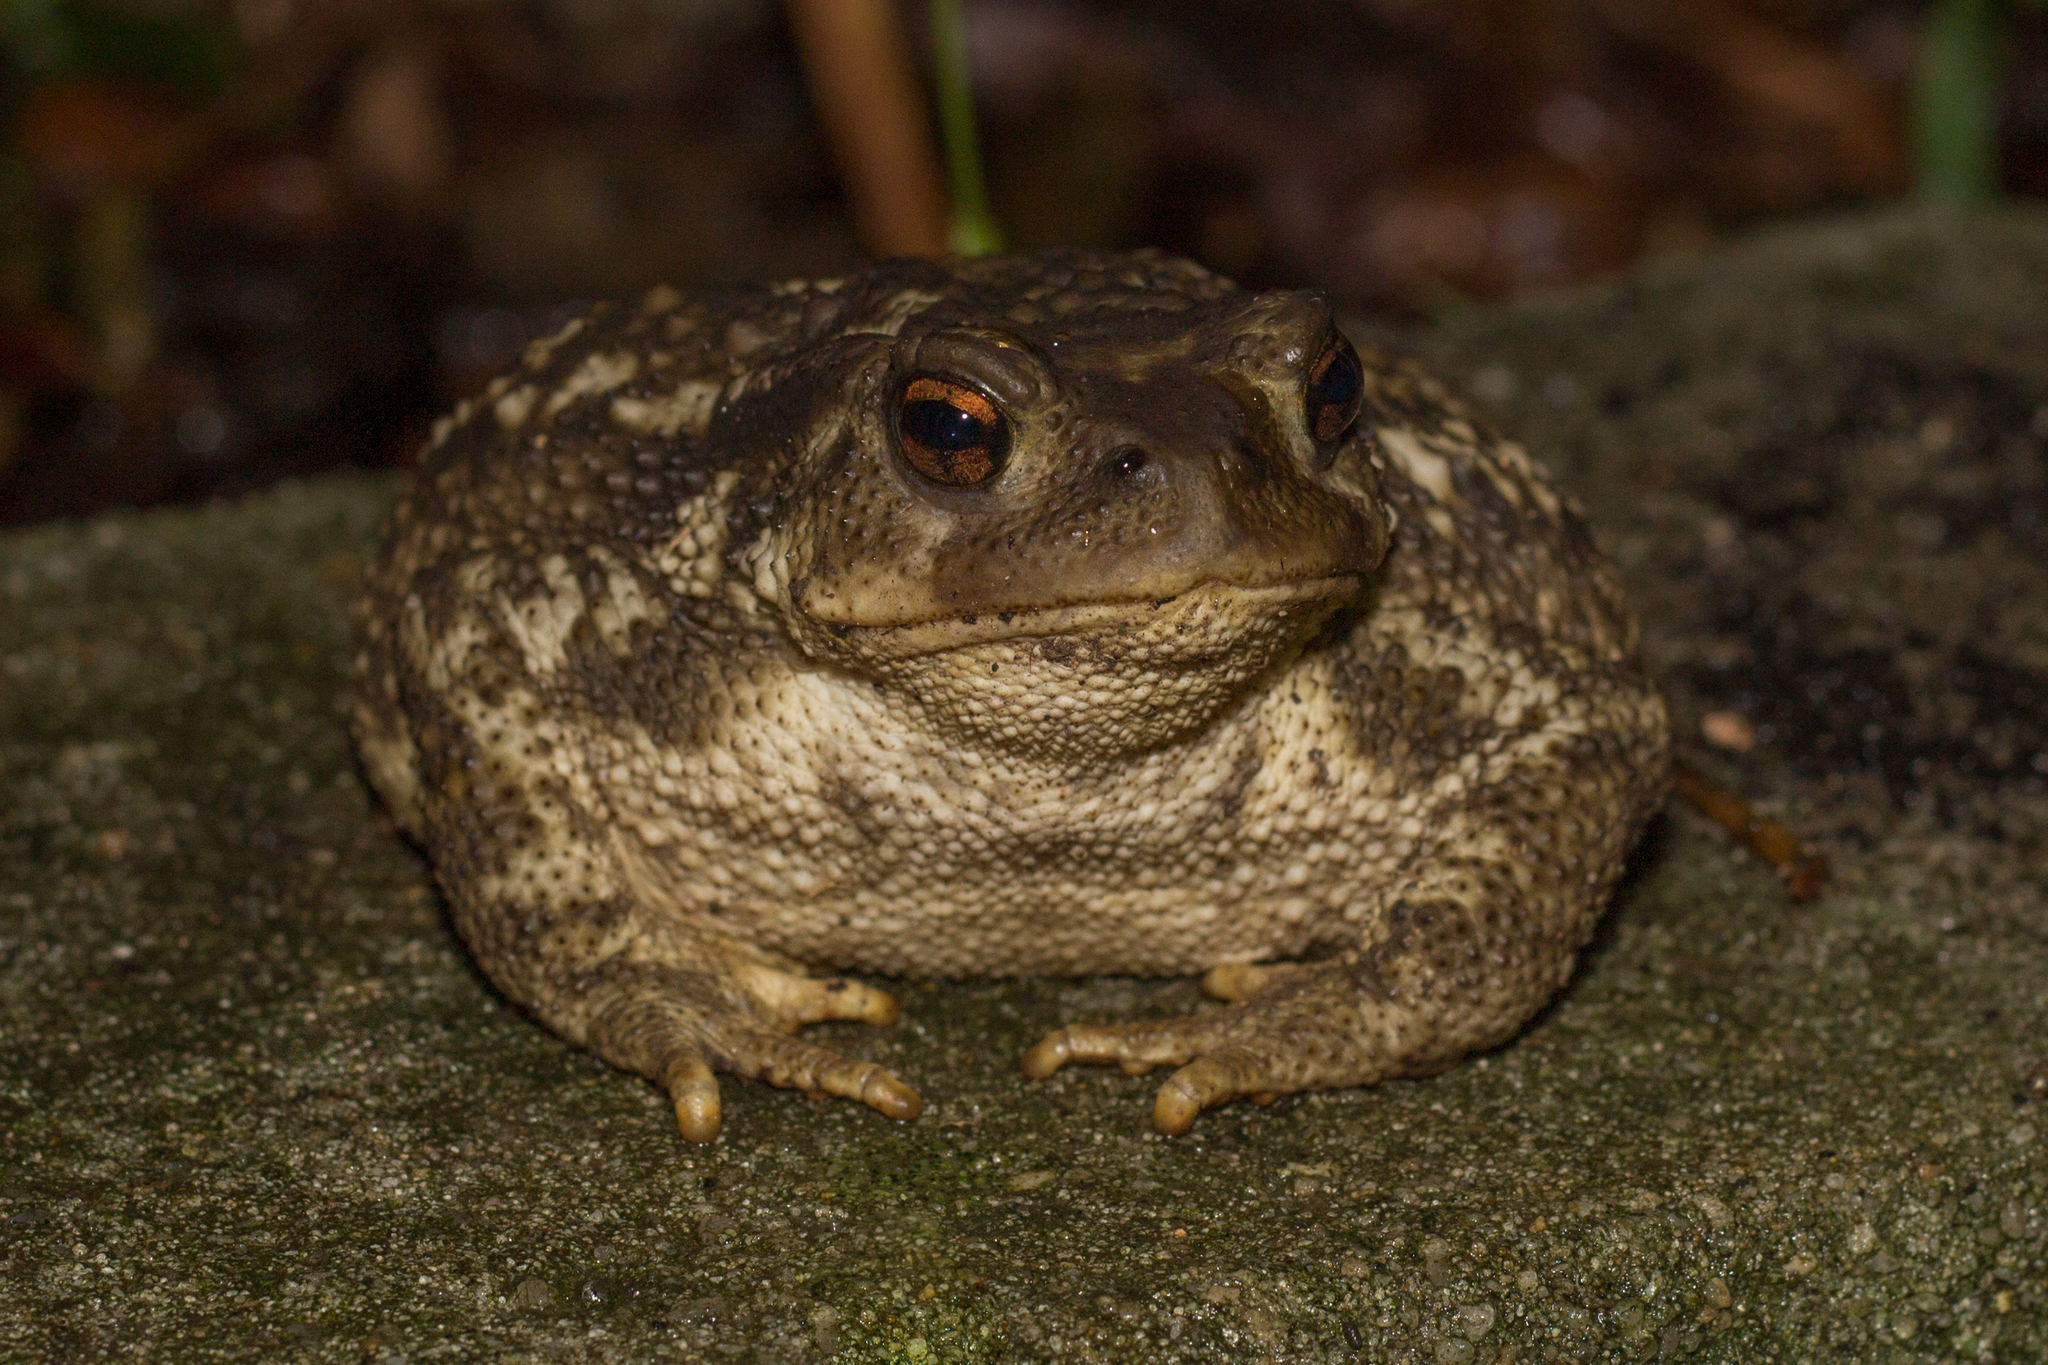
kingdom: Animalia
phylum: Chordata
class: Amphibia
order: Anura
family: Bufonidae
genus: Bufo
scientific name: Bufo spinosus
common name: Western common toad
